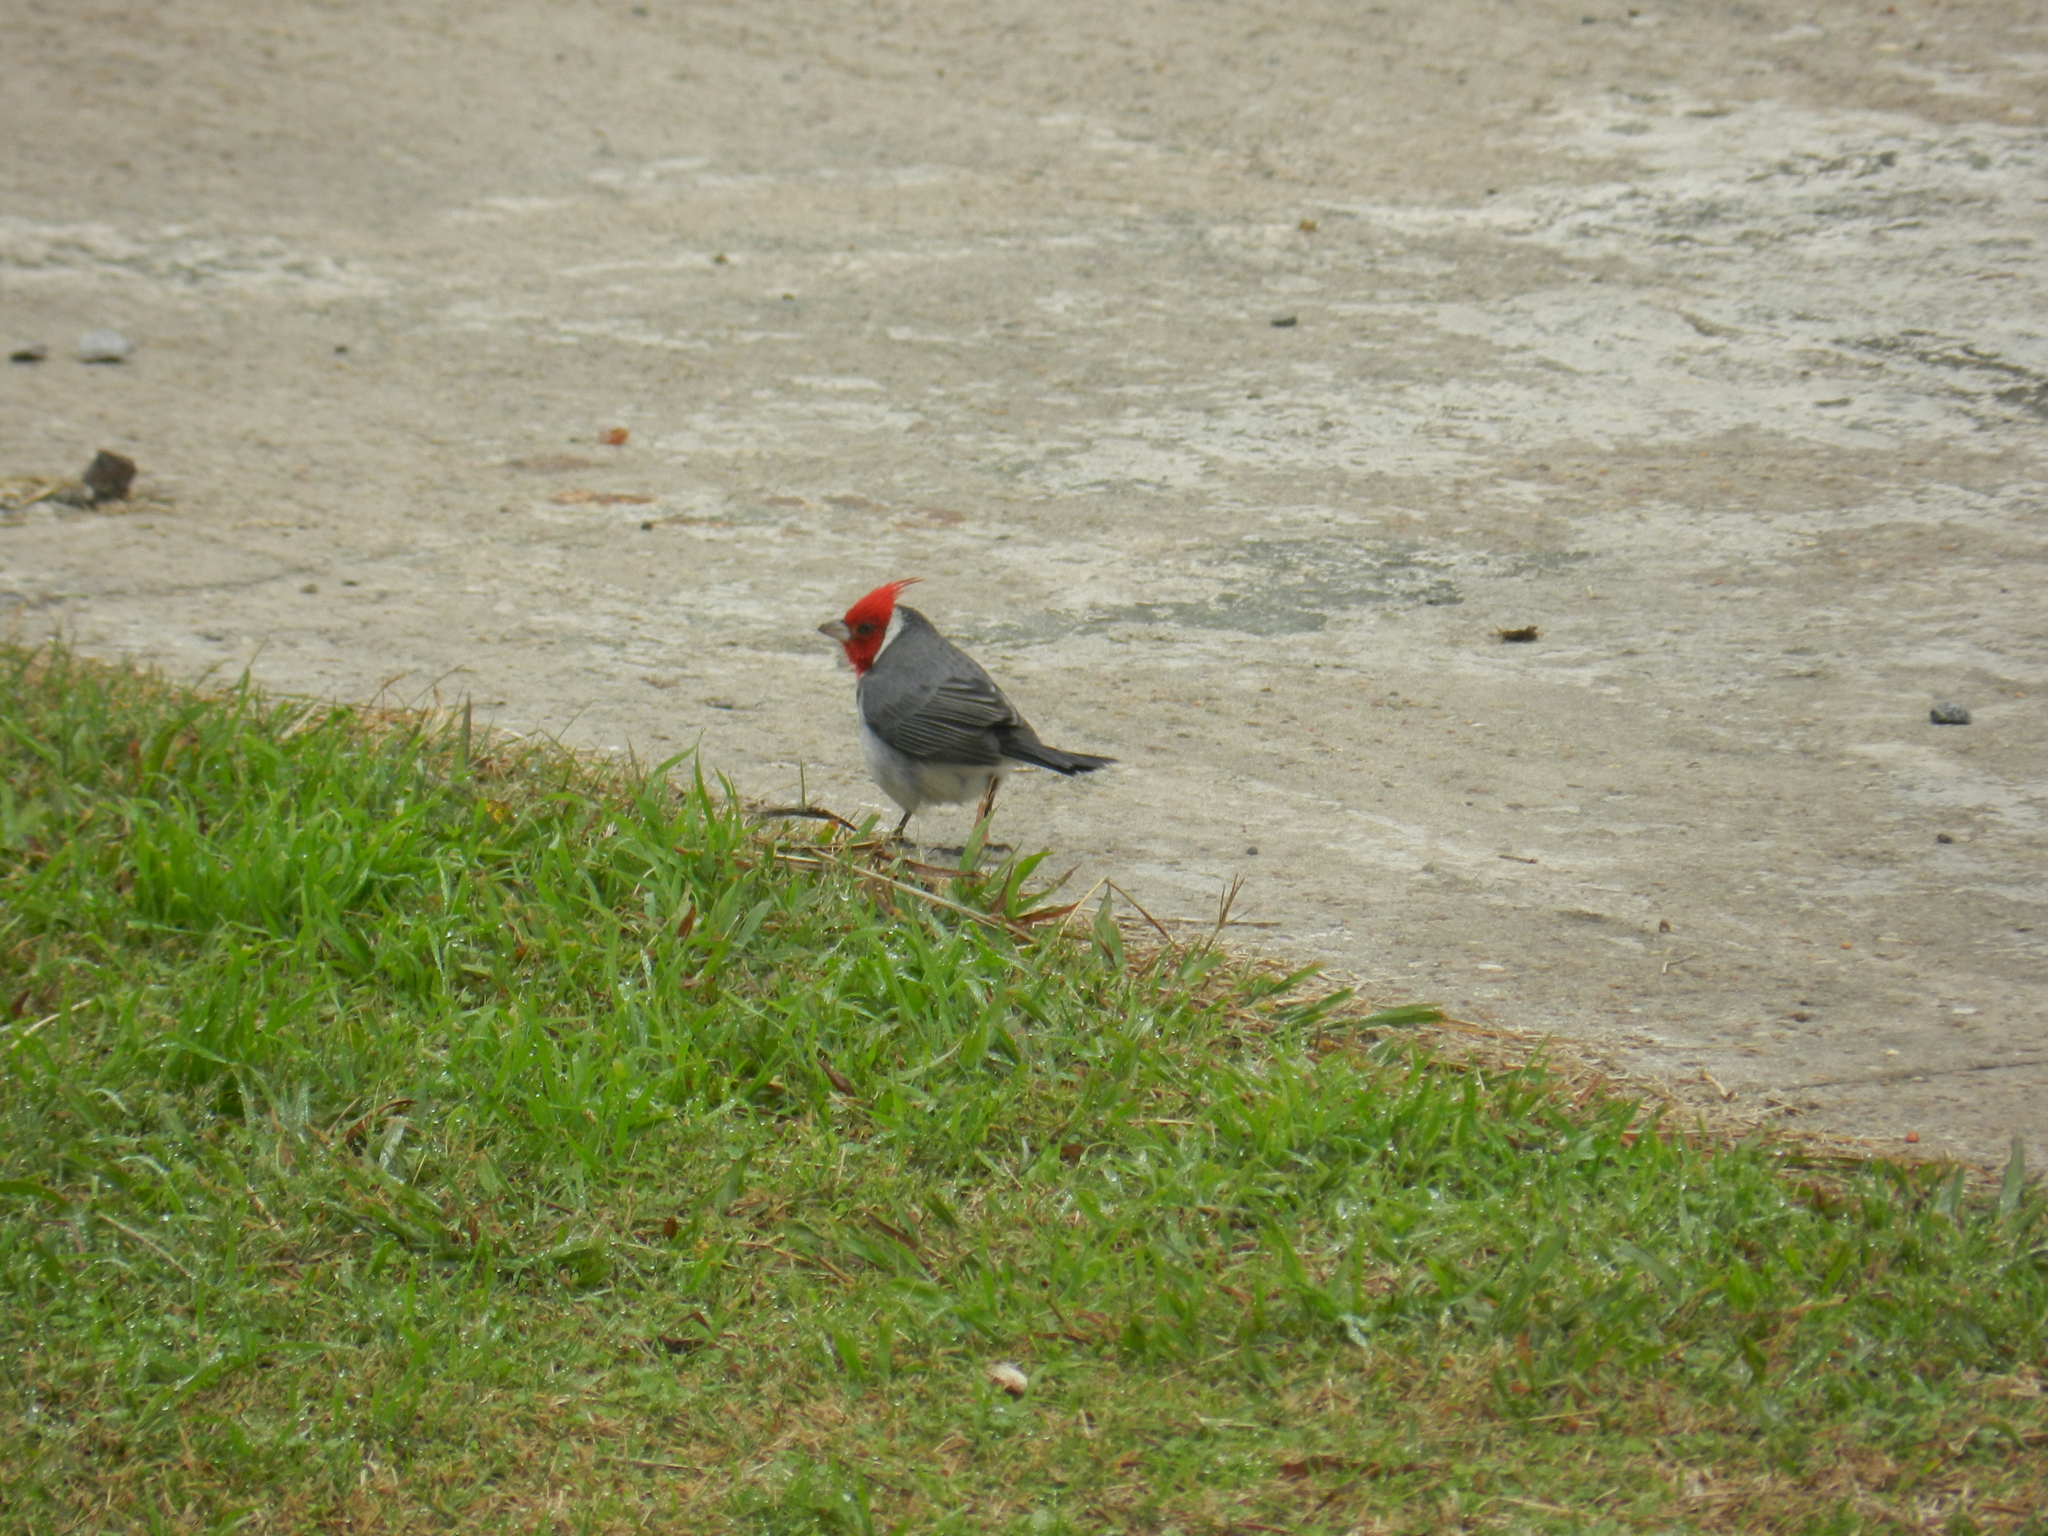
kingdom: Animalia
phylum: Chordata
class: Aves
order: Passeriformes
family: Thraupidae
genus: Paroaria
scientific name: Paroaria coronata
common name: Red-crested cardinal
